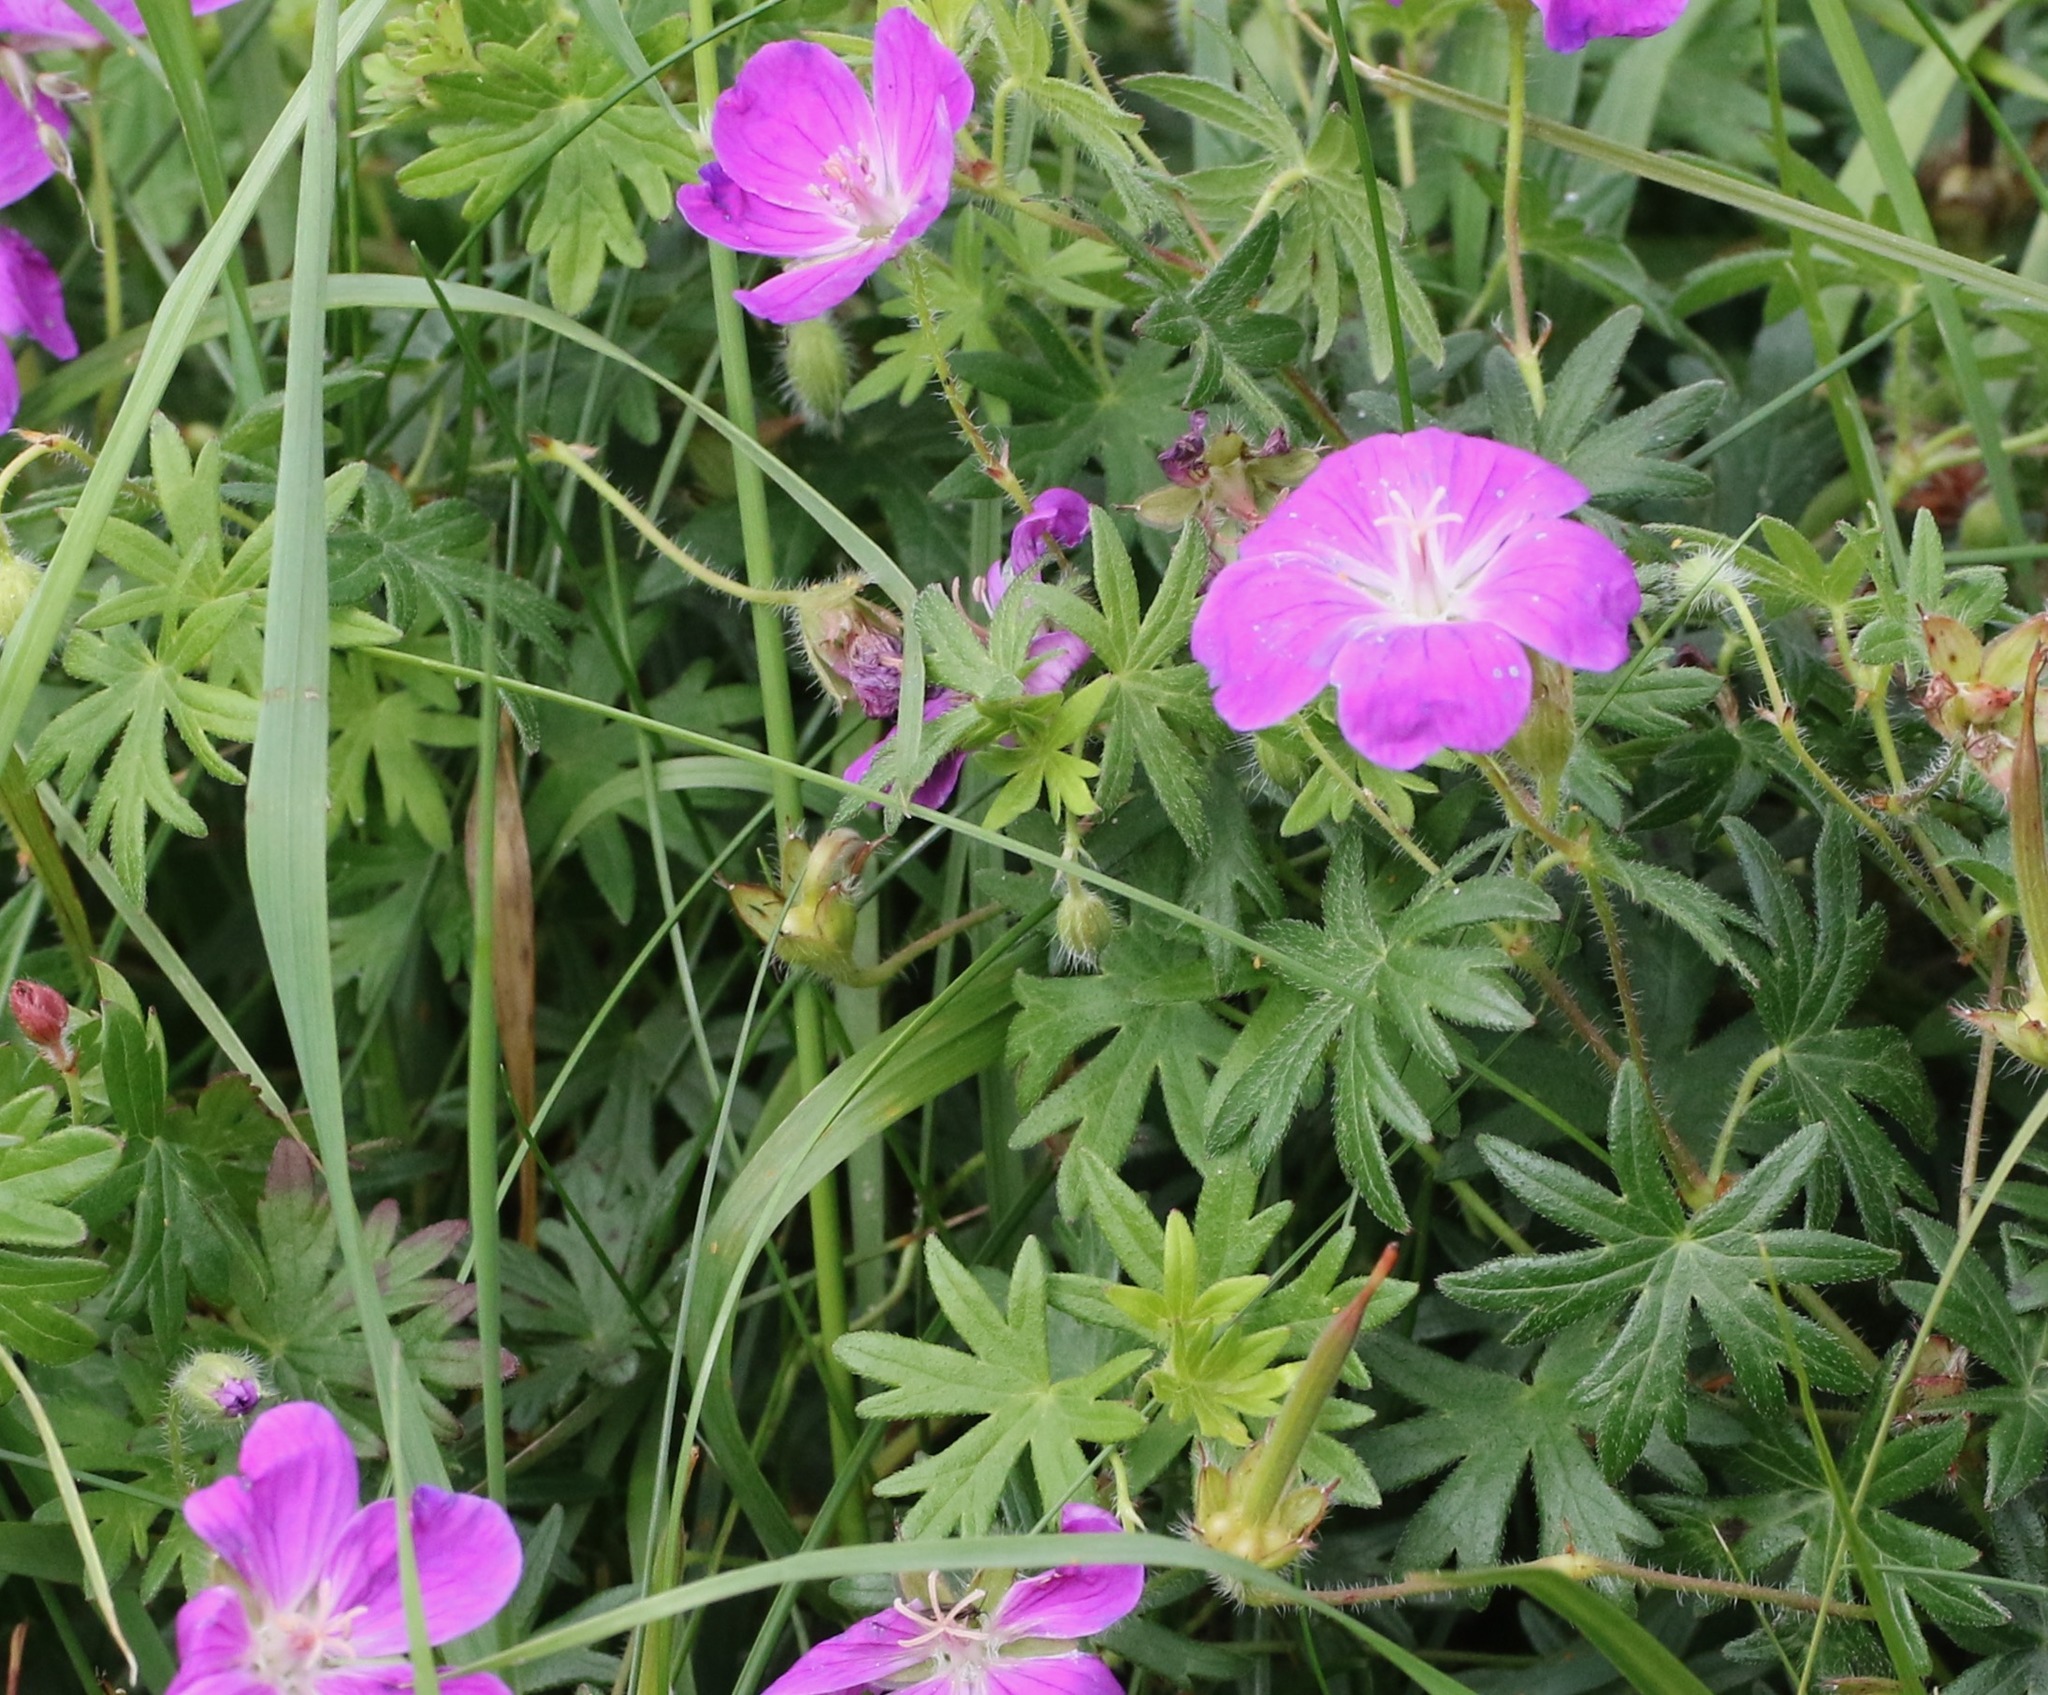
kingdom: Plantae
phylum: Tracheophyta
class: Magnoliopsida
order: Geraniales
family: Geraniaceae
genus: Geranium
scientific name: Geranium sanguineum
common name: Bloody crane's-bill
